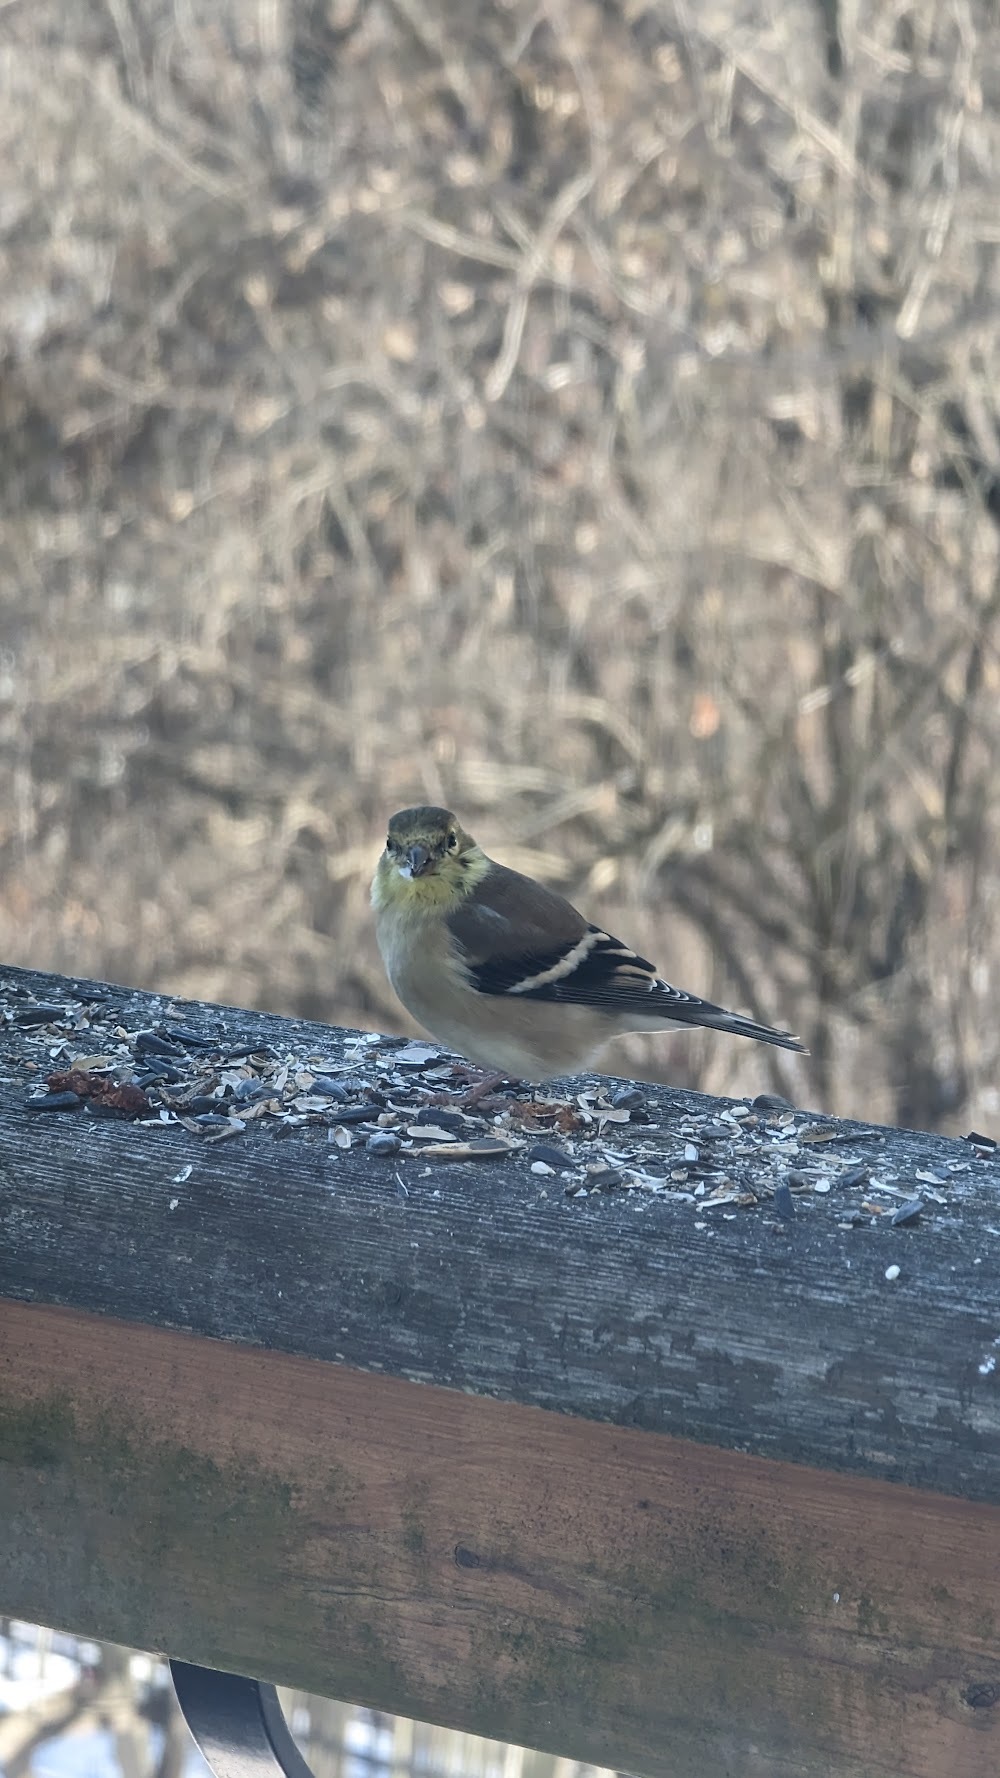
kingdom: Animalia
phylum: Chordata
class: Aves
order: Passeriformes
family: Fringillidae
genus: Spinus
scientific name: Spinus tristis
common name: American goldfinch
